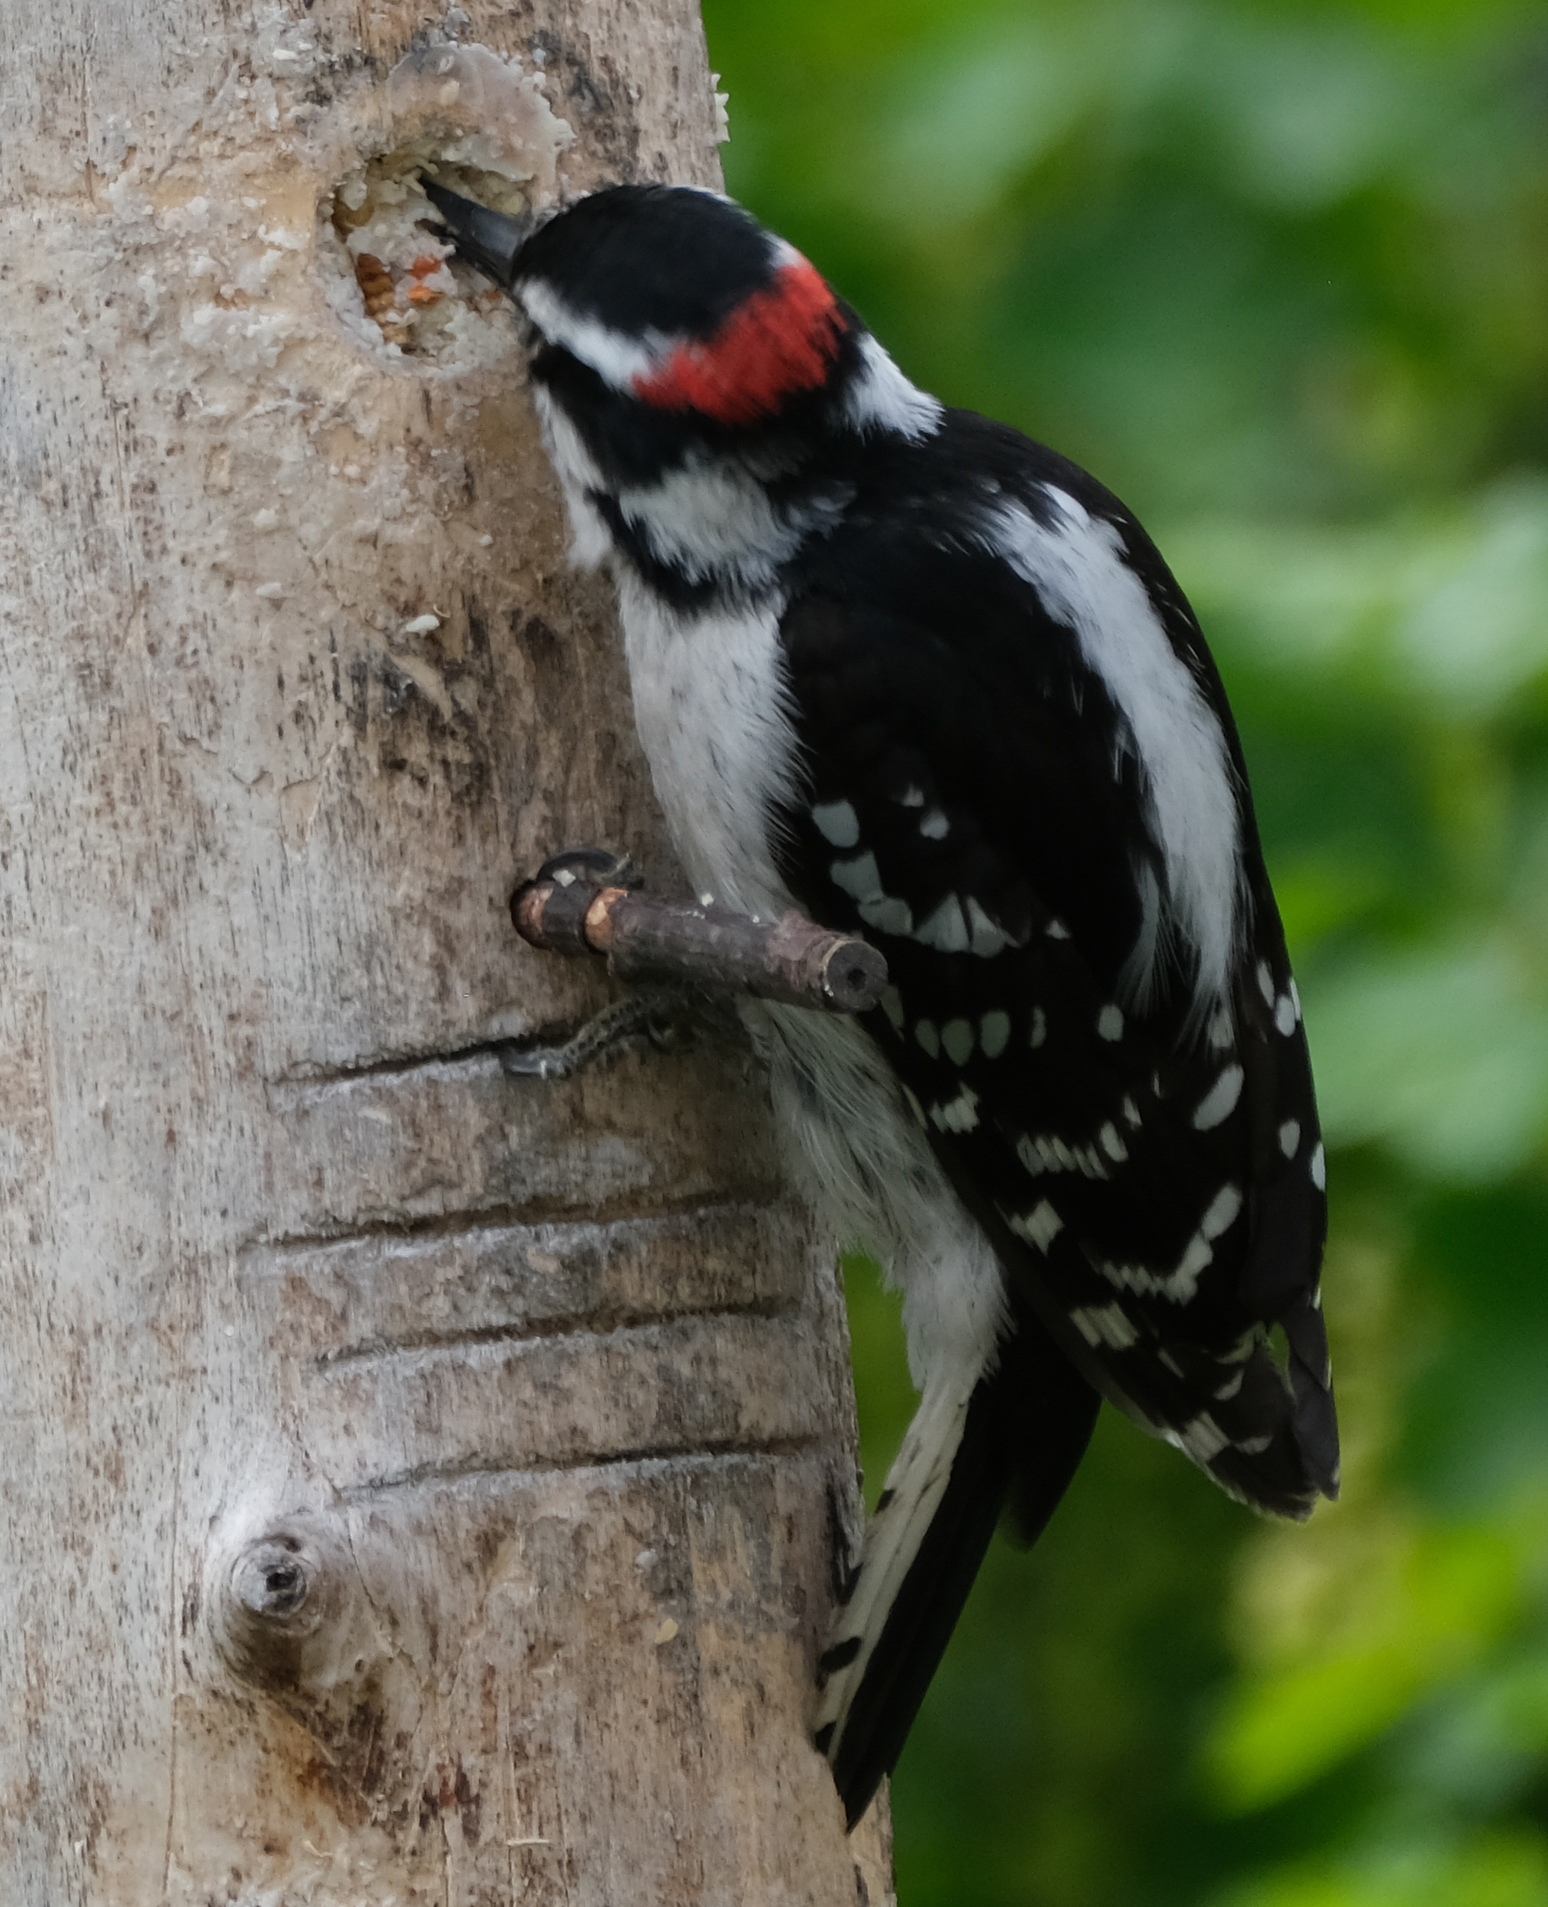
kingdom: Animalia
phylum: Chordata
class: Aves
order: Piciformes
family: Picidae
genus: Dryobates
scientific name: Dryobates pubescens
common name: Downy woodpecker
